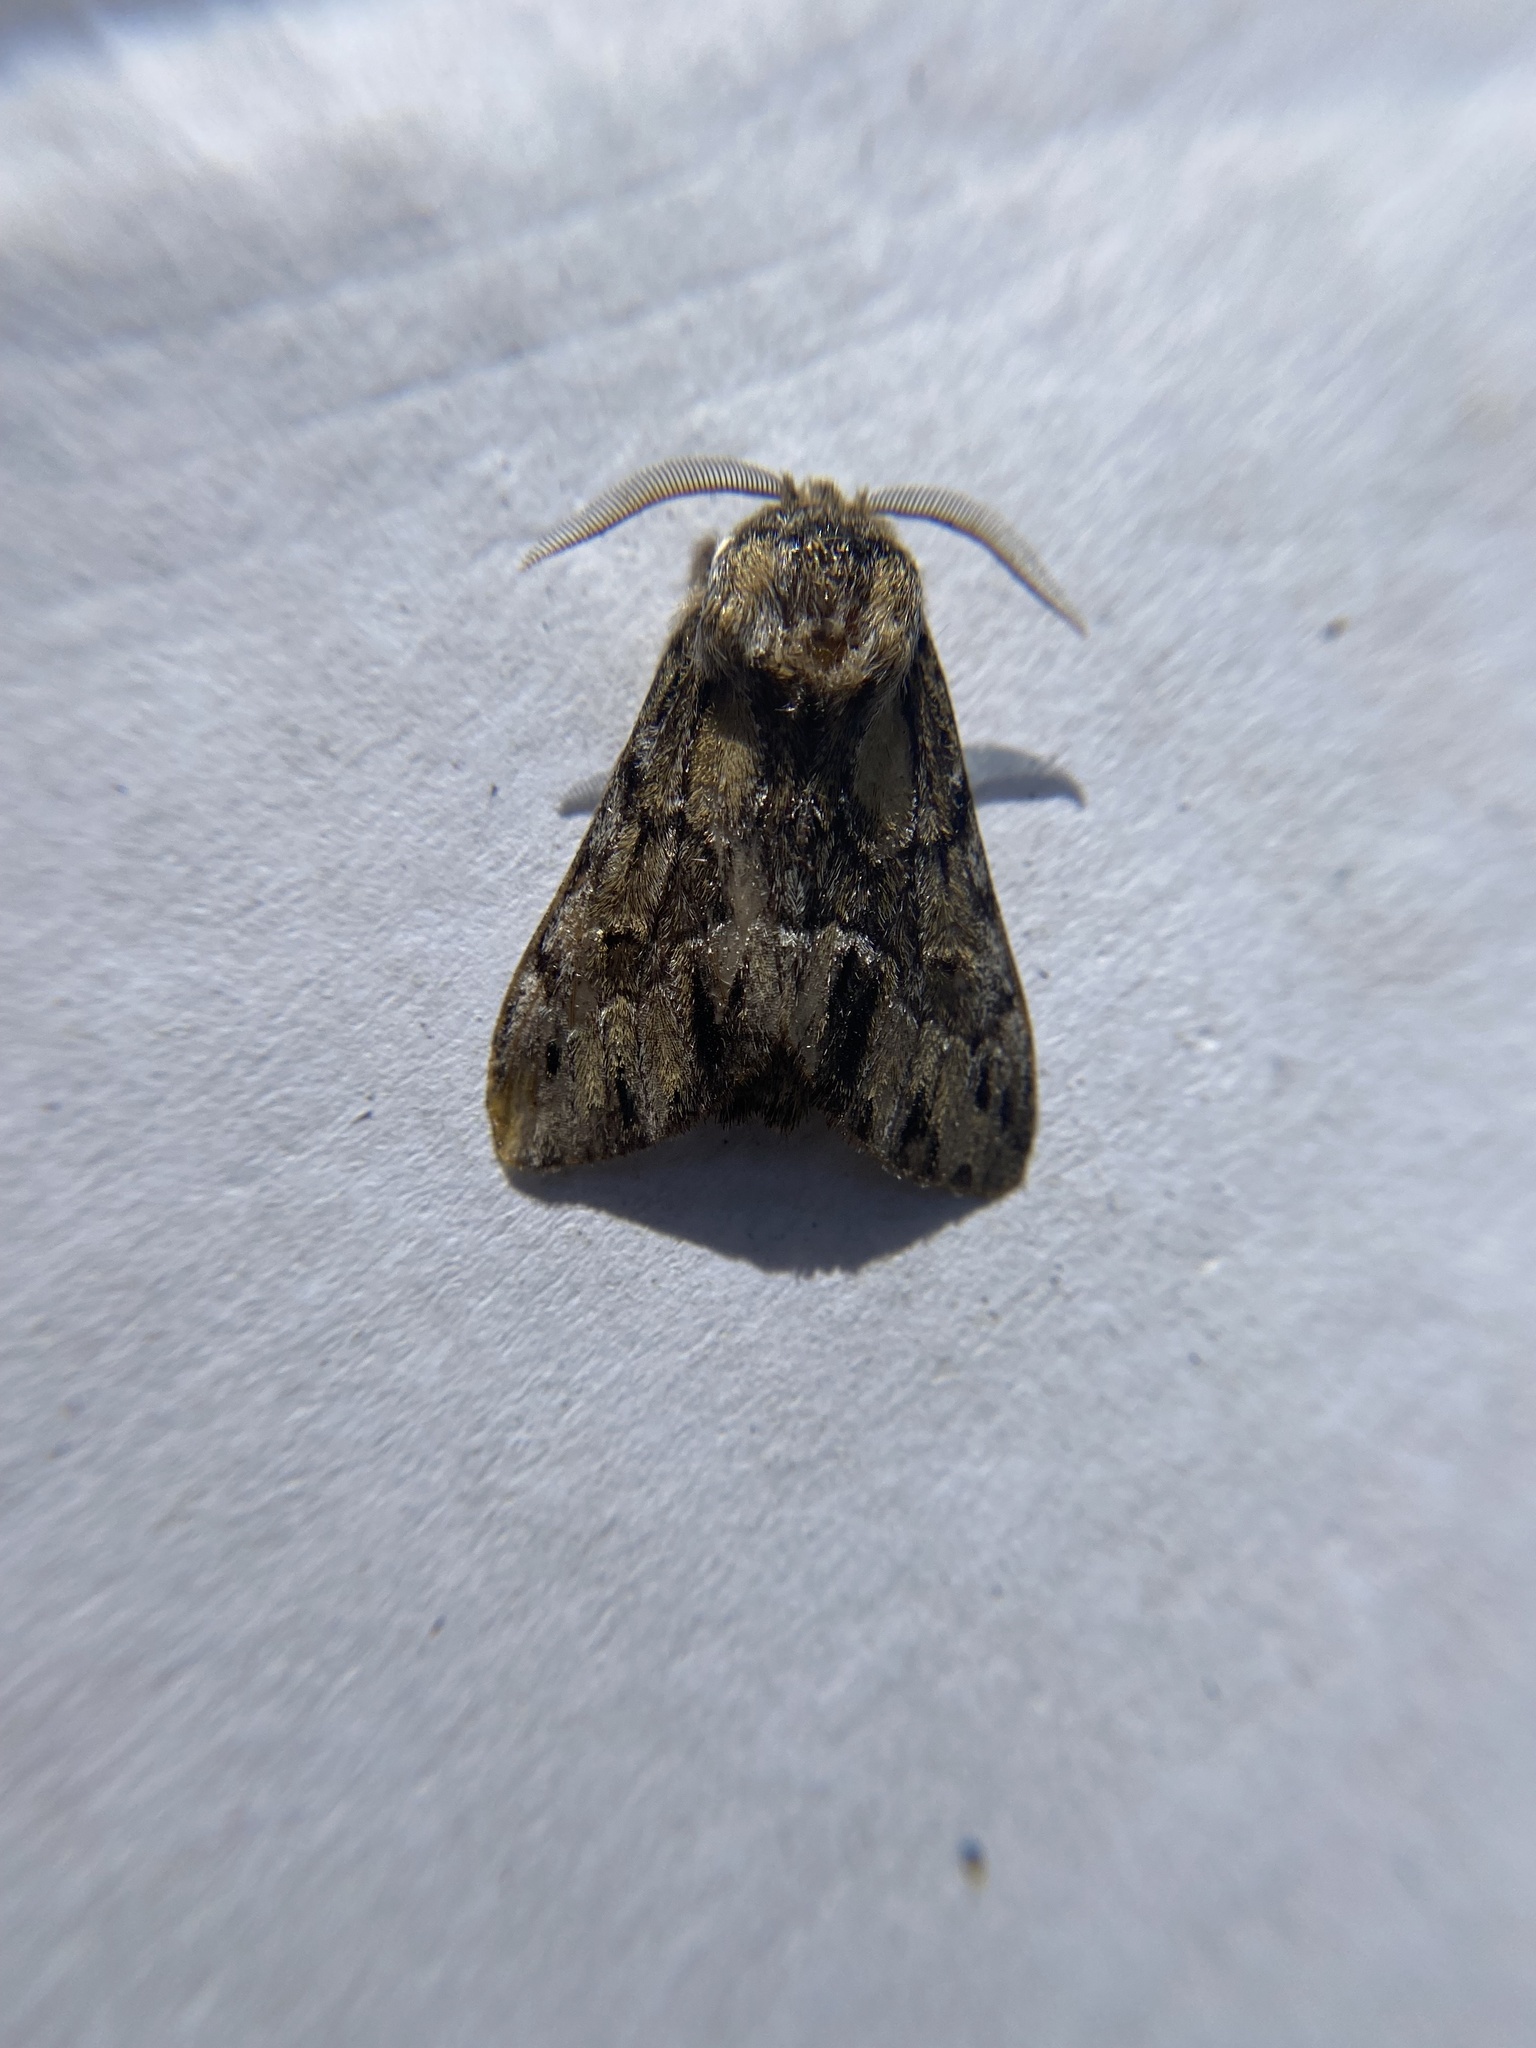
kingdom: Animalia
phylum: Arthropoda
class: Insecta
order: Lepidoptera
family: Notodontidae
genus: Paraeschra
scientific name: Paraeschra georgica
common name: Georgian prominent
